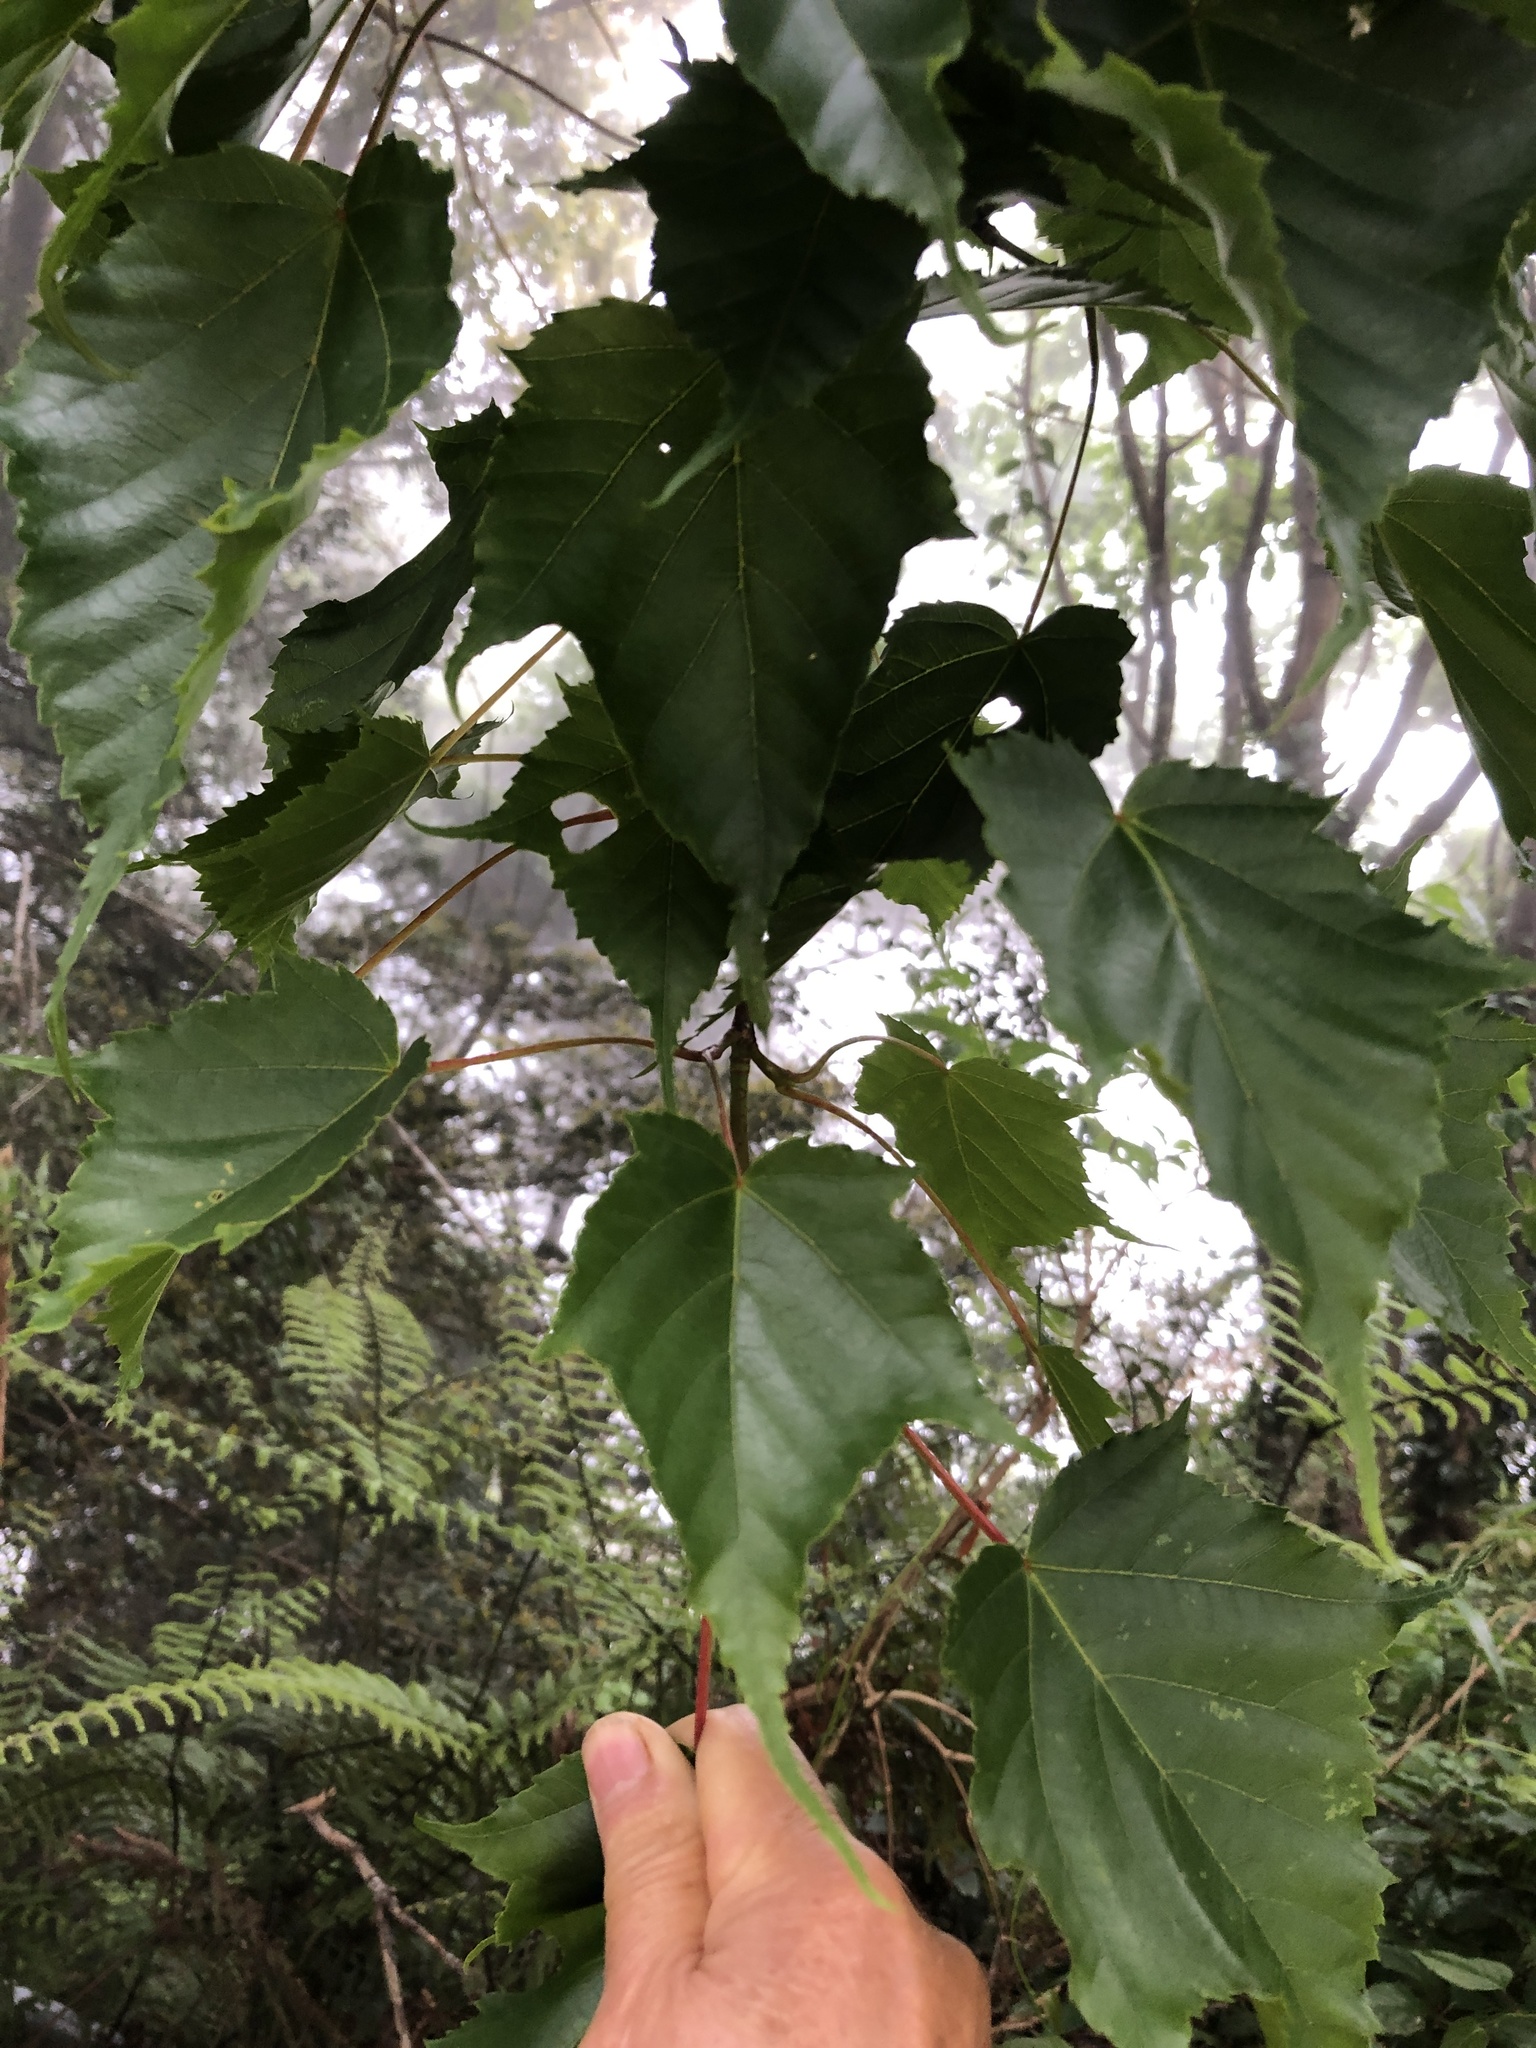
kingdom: Plantae
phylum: Tracheophyta
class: Magnoliopsida
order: Sapindales
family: Sapindaceae
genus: Acer
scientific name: Acer caudatifolium
